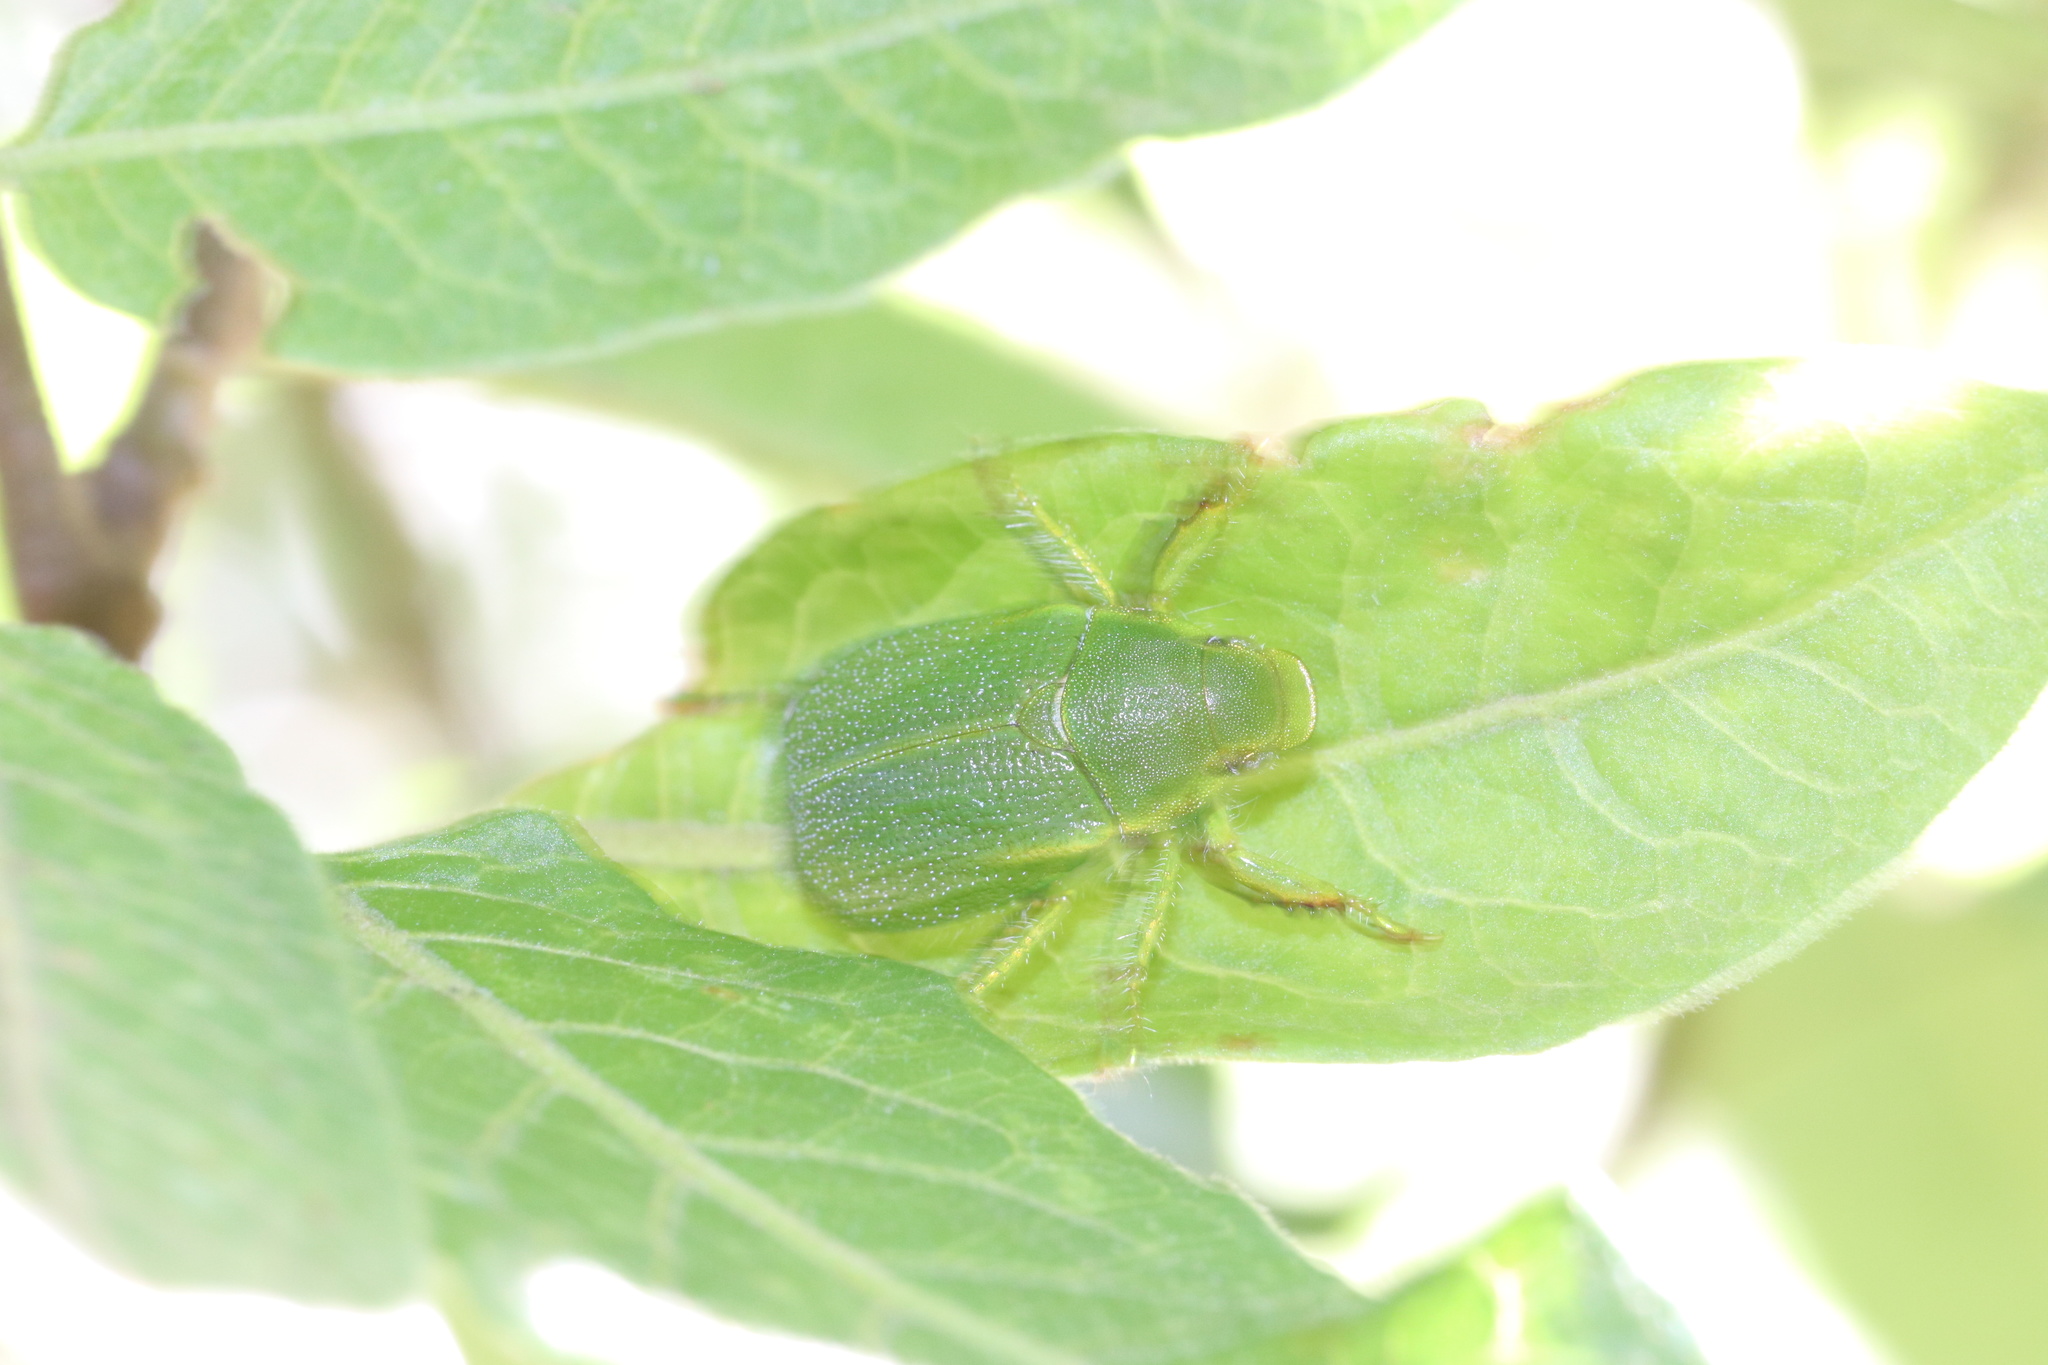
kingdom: Animalia
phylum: Arthropoda
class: Insecta
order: Coleoptera
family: Scarabaeidae
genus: Hylamorpha
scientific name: Hylamorpha elegans
